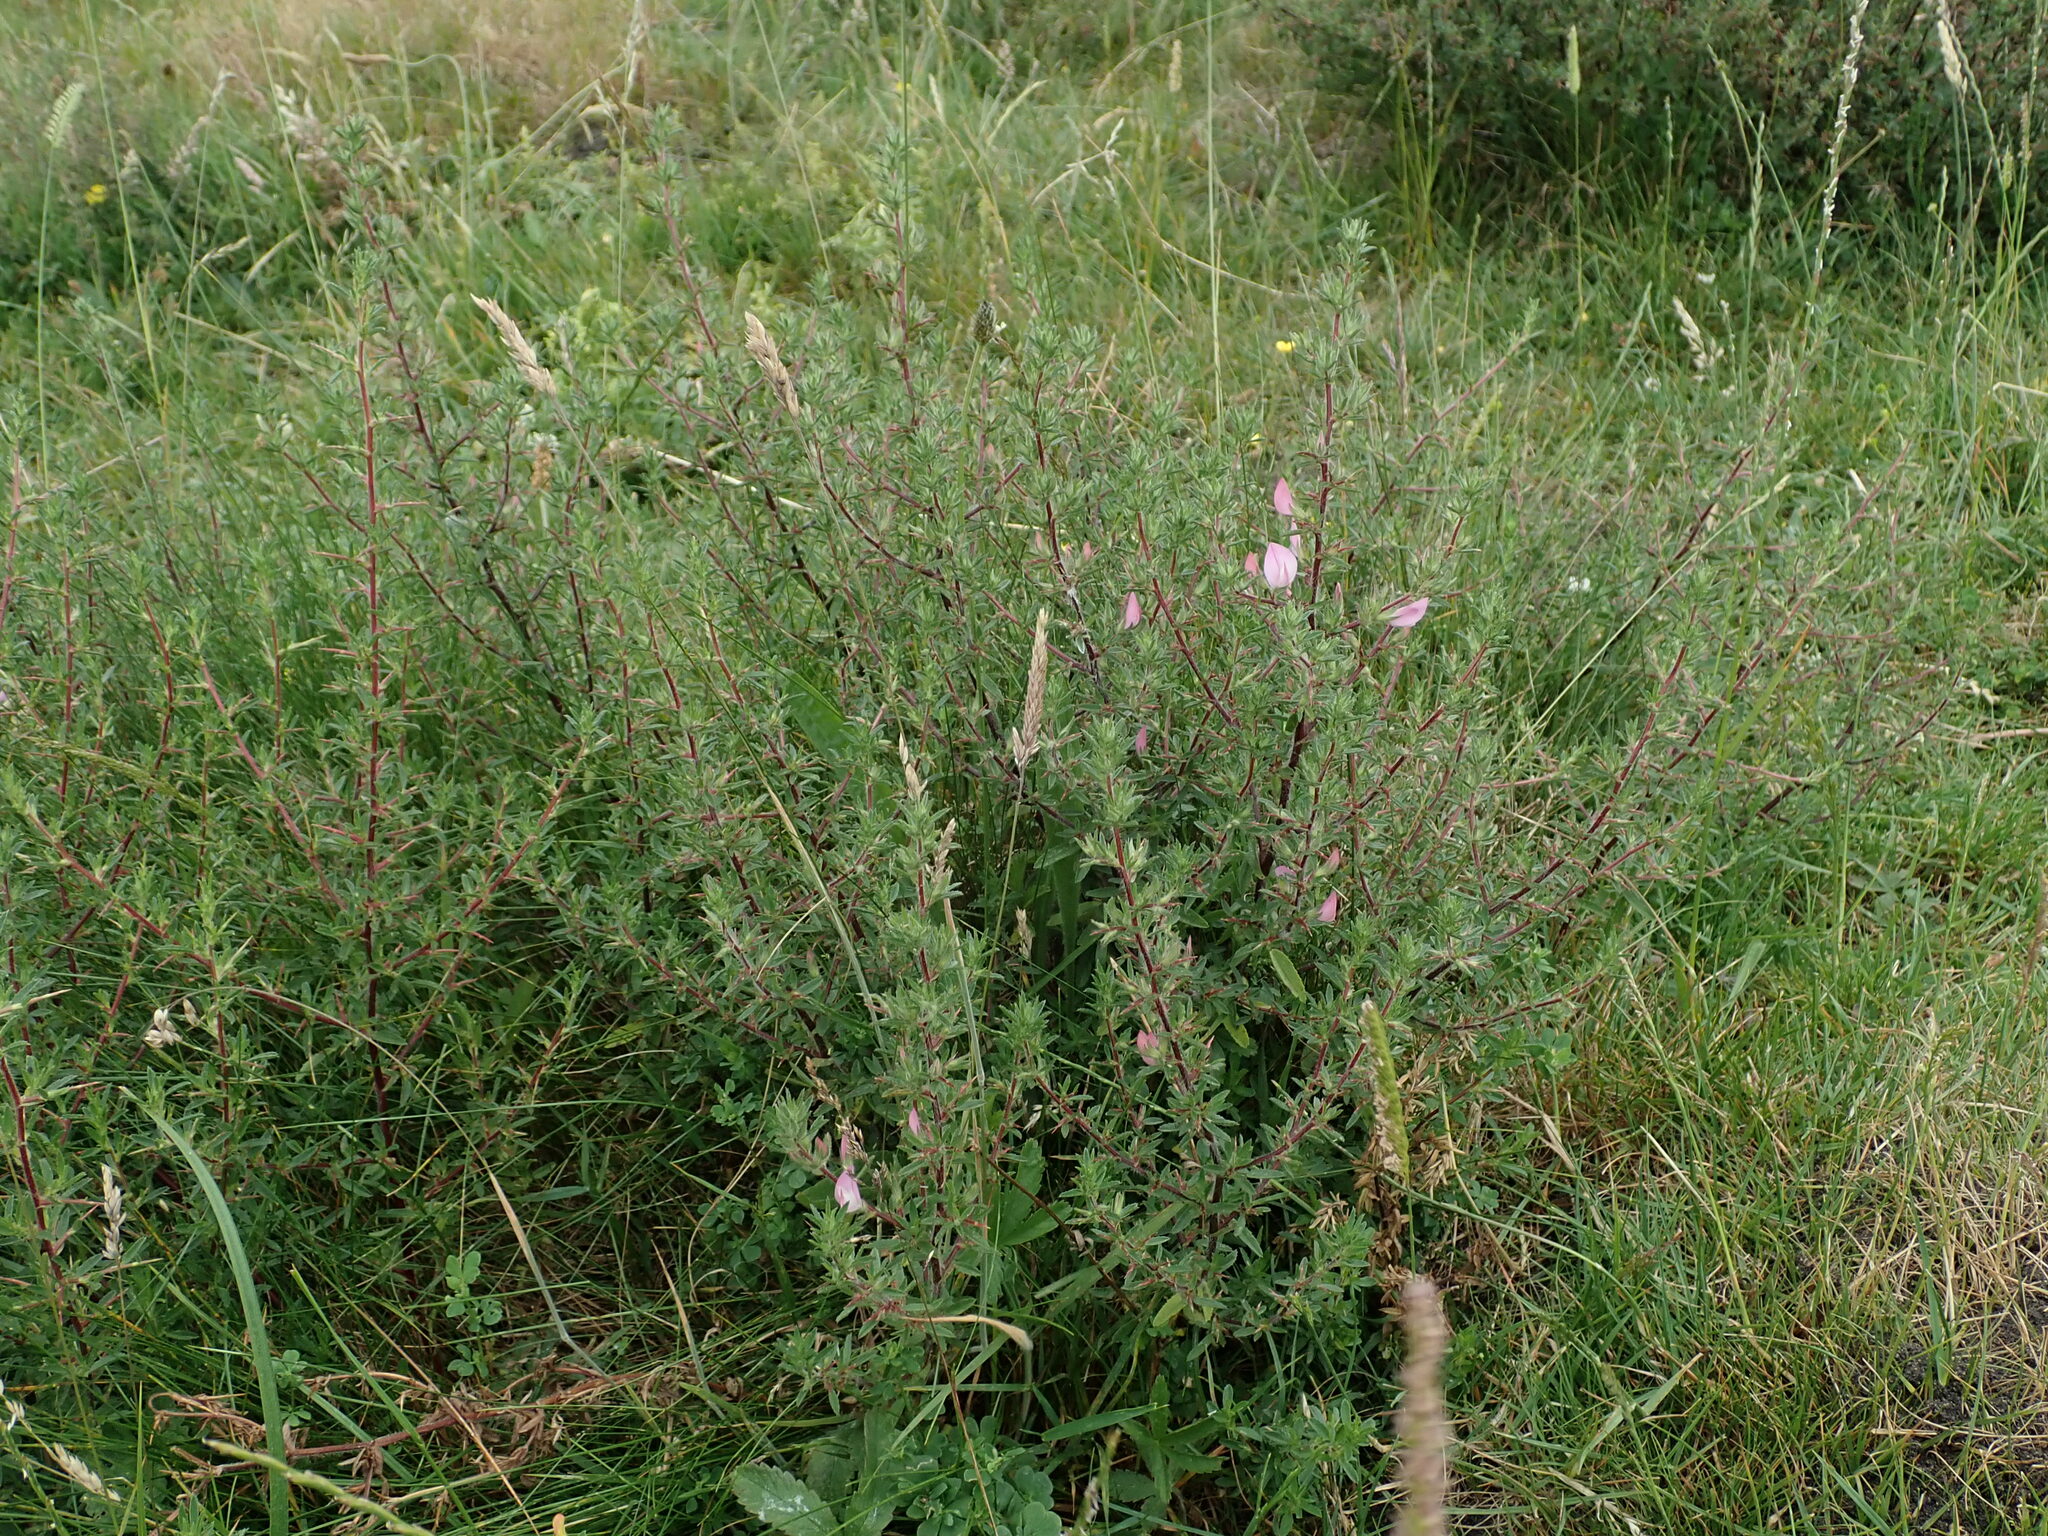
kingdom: Plantae
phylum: Tracheophyta
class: Magnoliopsida
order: Fabales
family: Fabaceae
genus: Ononis
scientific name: Ononis spinosa
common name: Spiny restharrow
